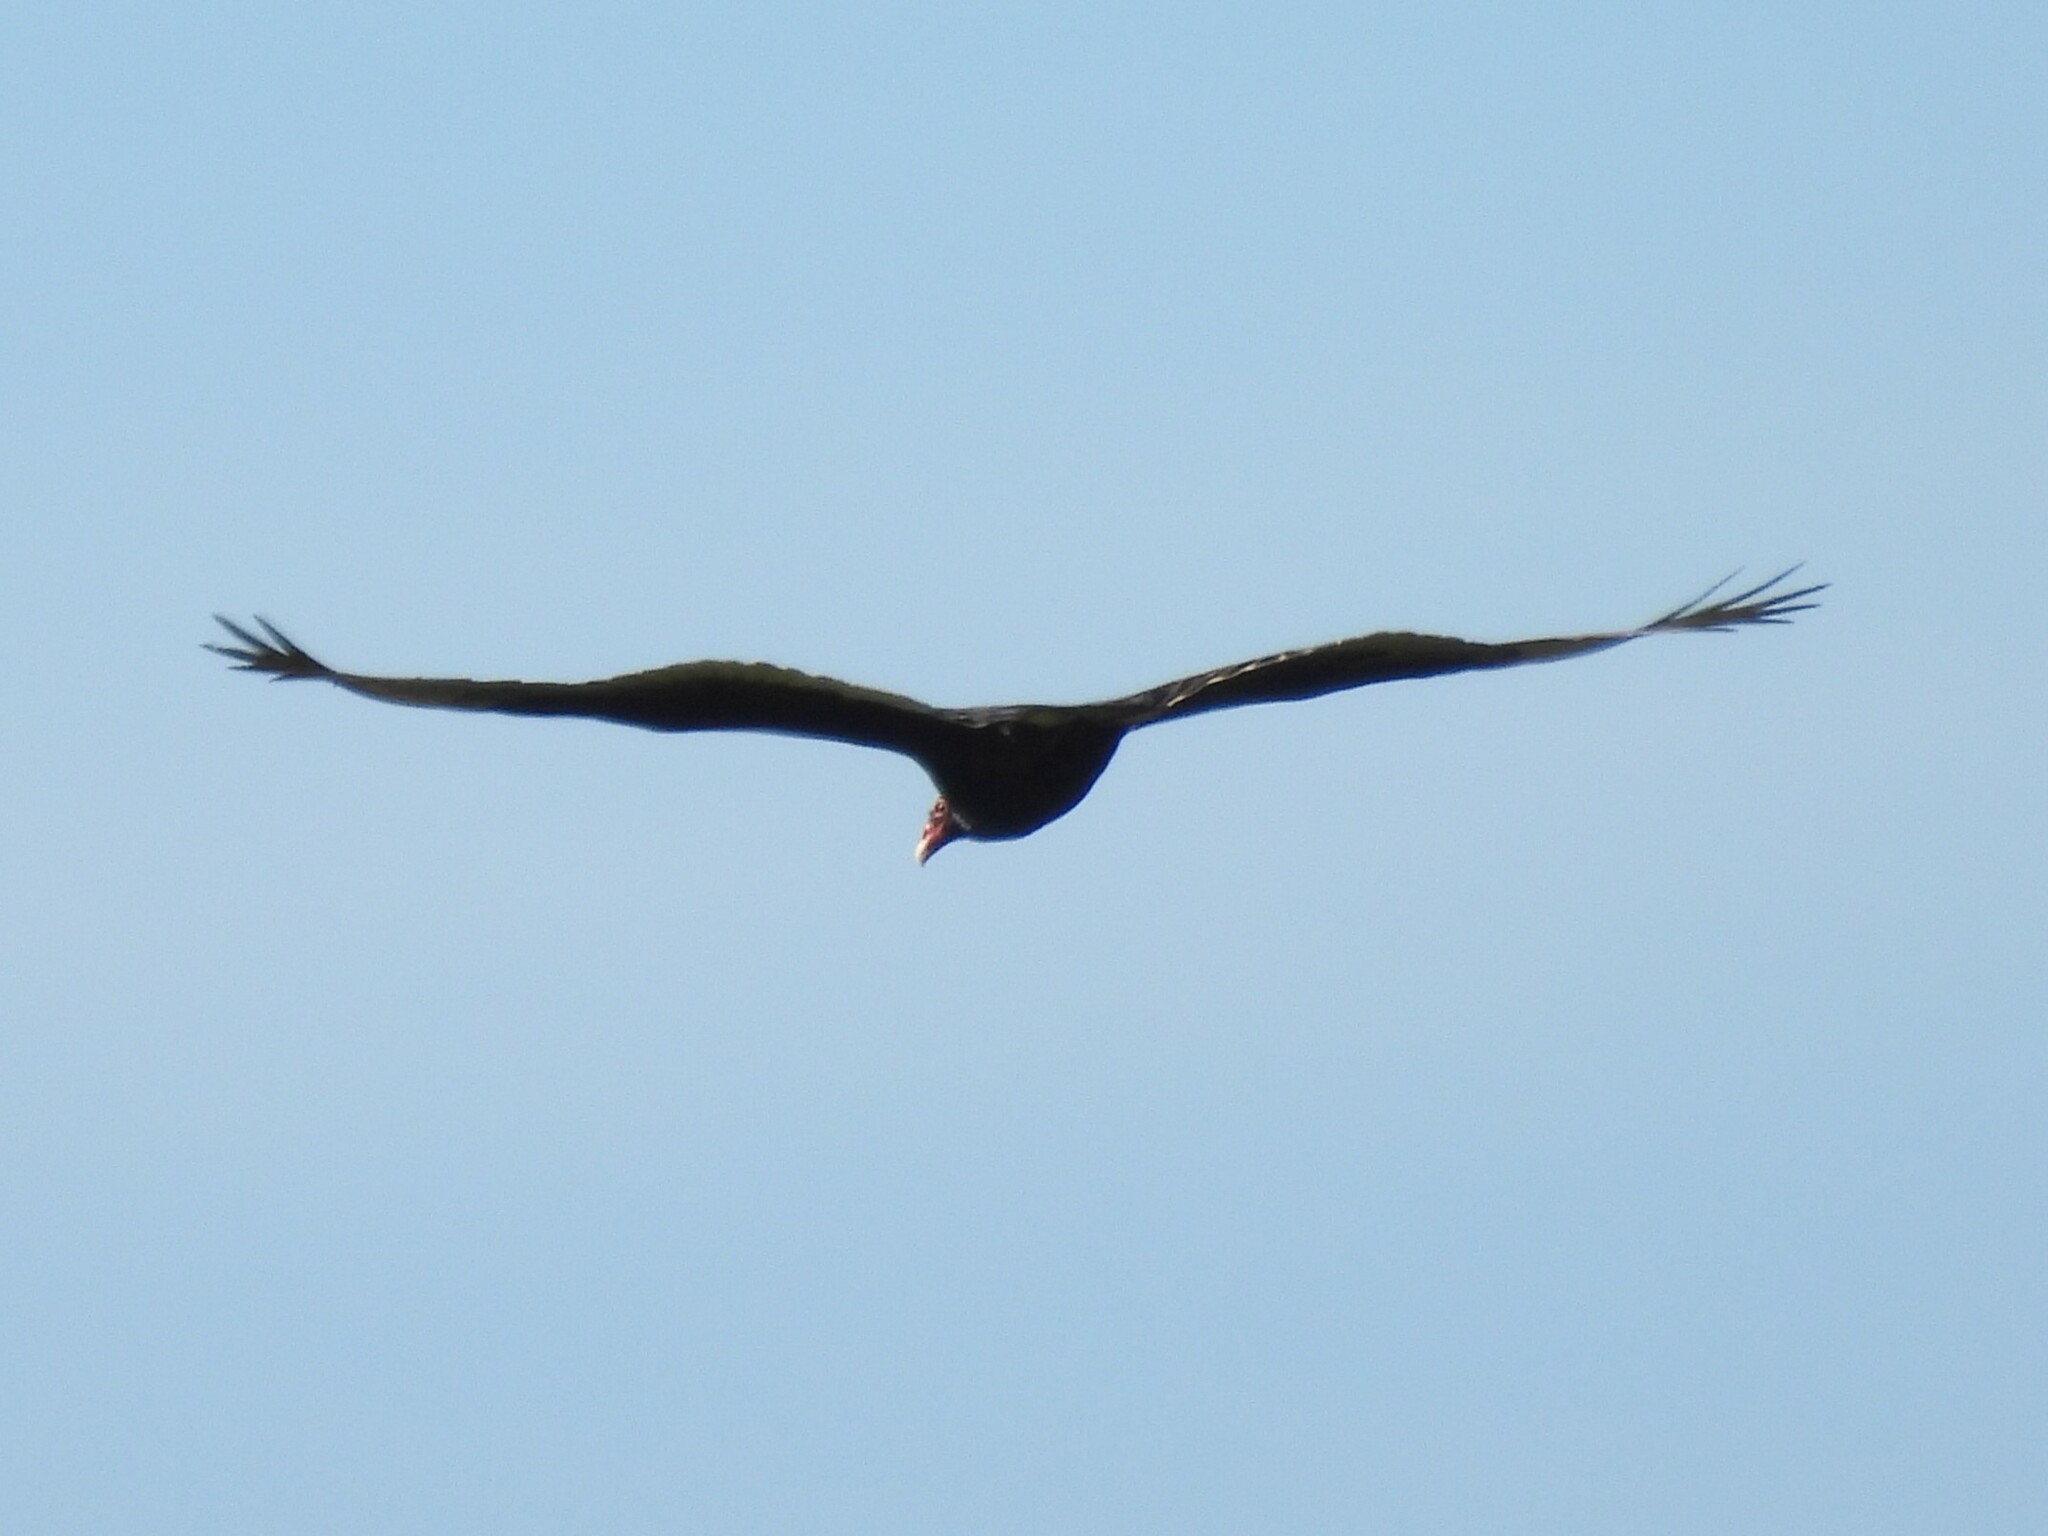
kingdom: Animalia
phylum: Chordata
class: Aves
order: Accipitriformes
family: Cathartidae
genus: Cathartes
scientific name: Cathartes aura
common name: Turkey vulture
